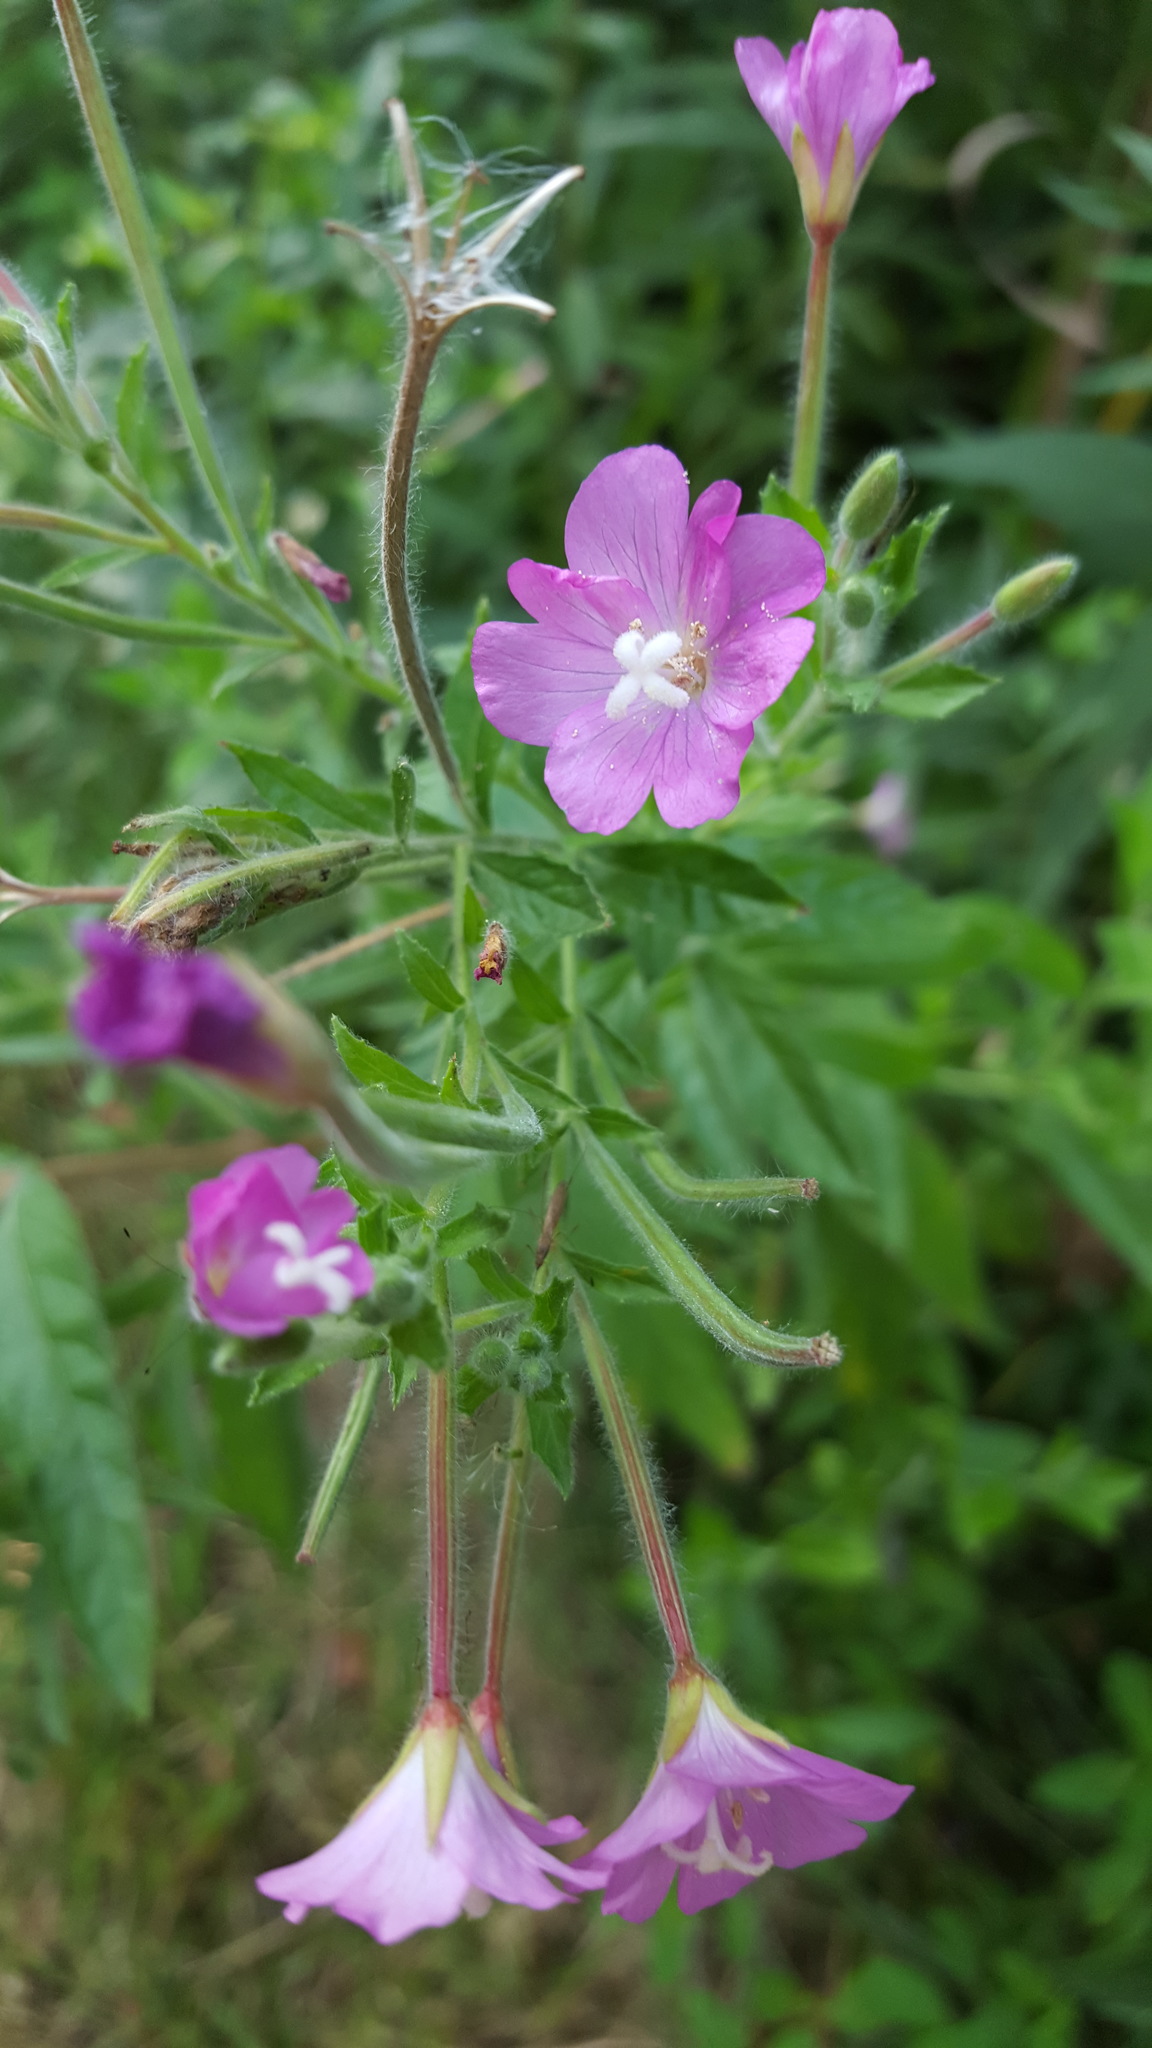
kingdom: Plantae
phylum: Tracheophyta
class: Magnoliopsida
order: Myrtales
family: Onagraceae
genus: Epilobium
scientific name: Epilobium hirsutum
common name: Great willowherb
